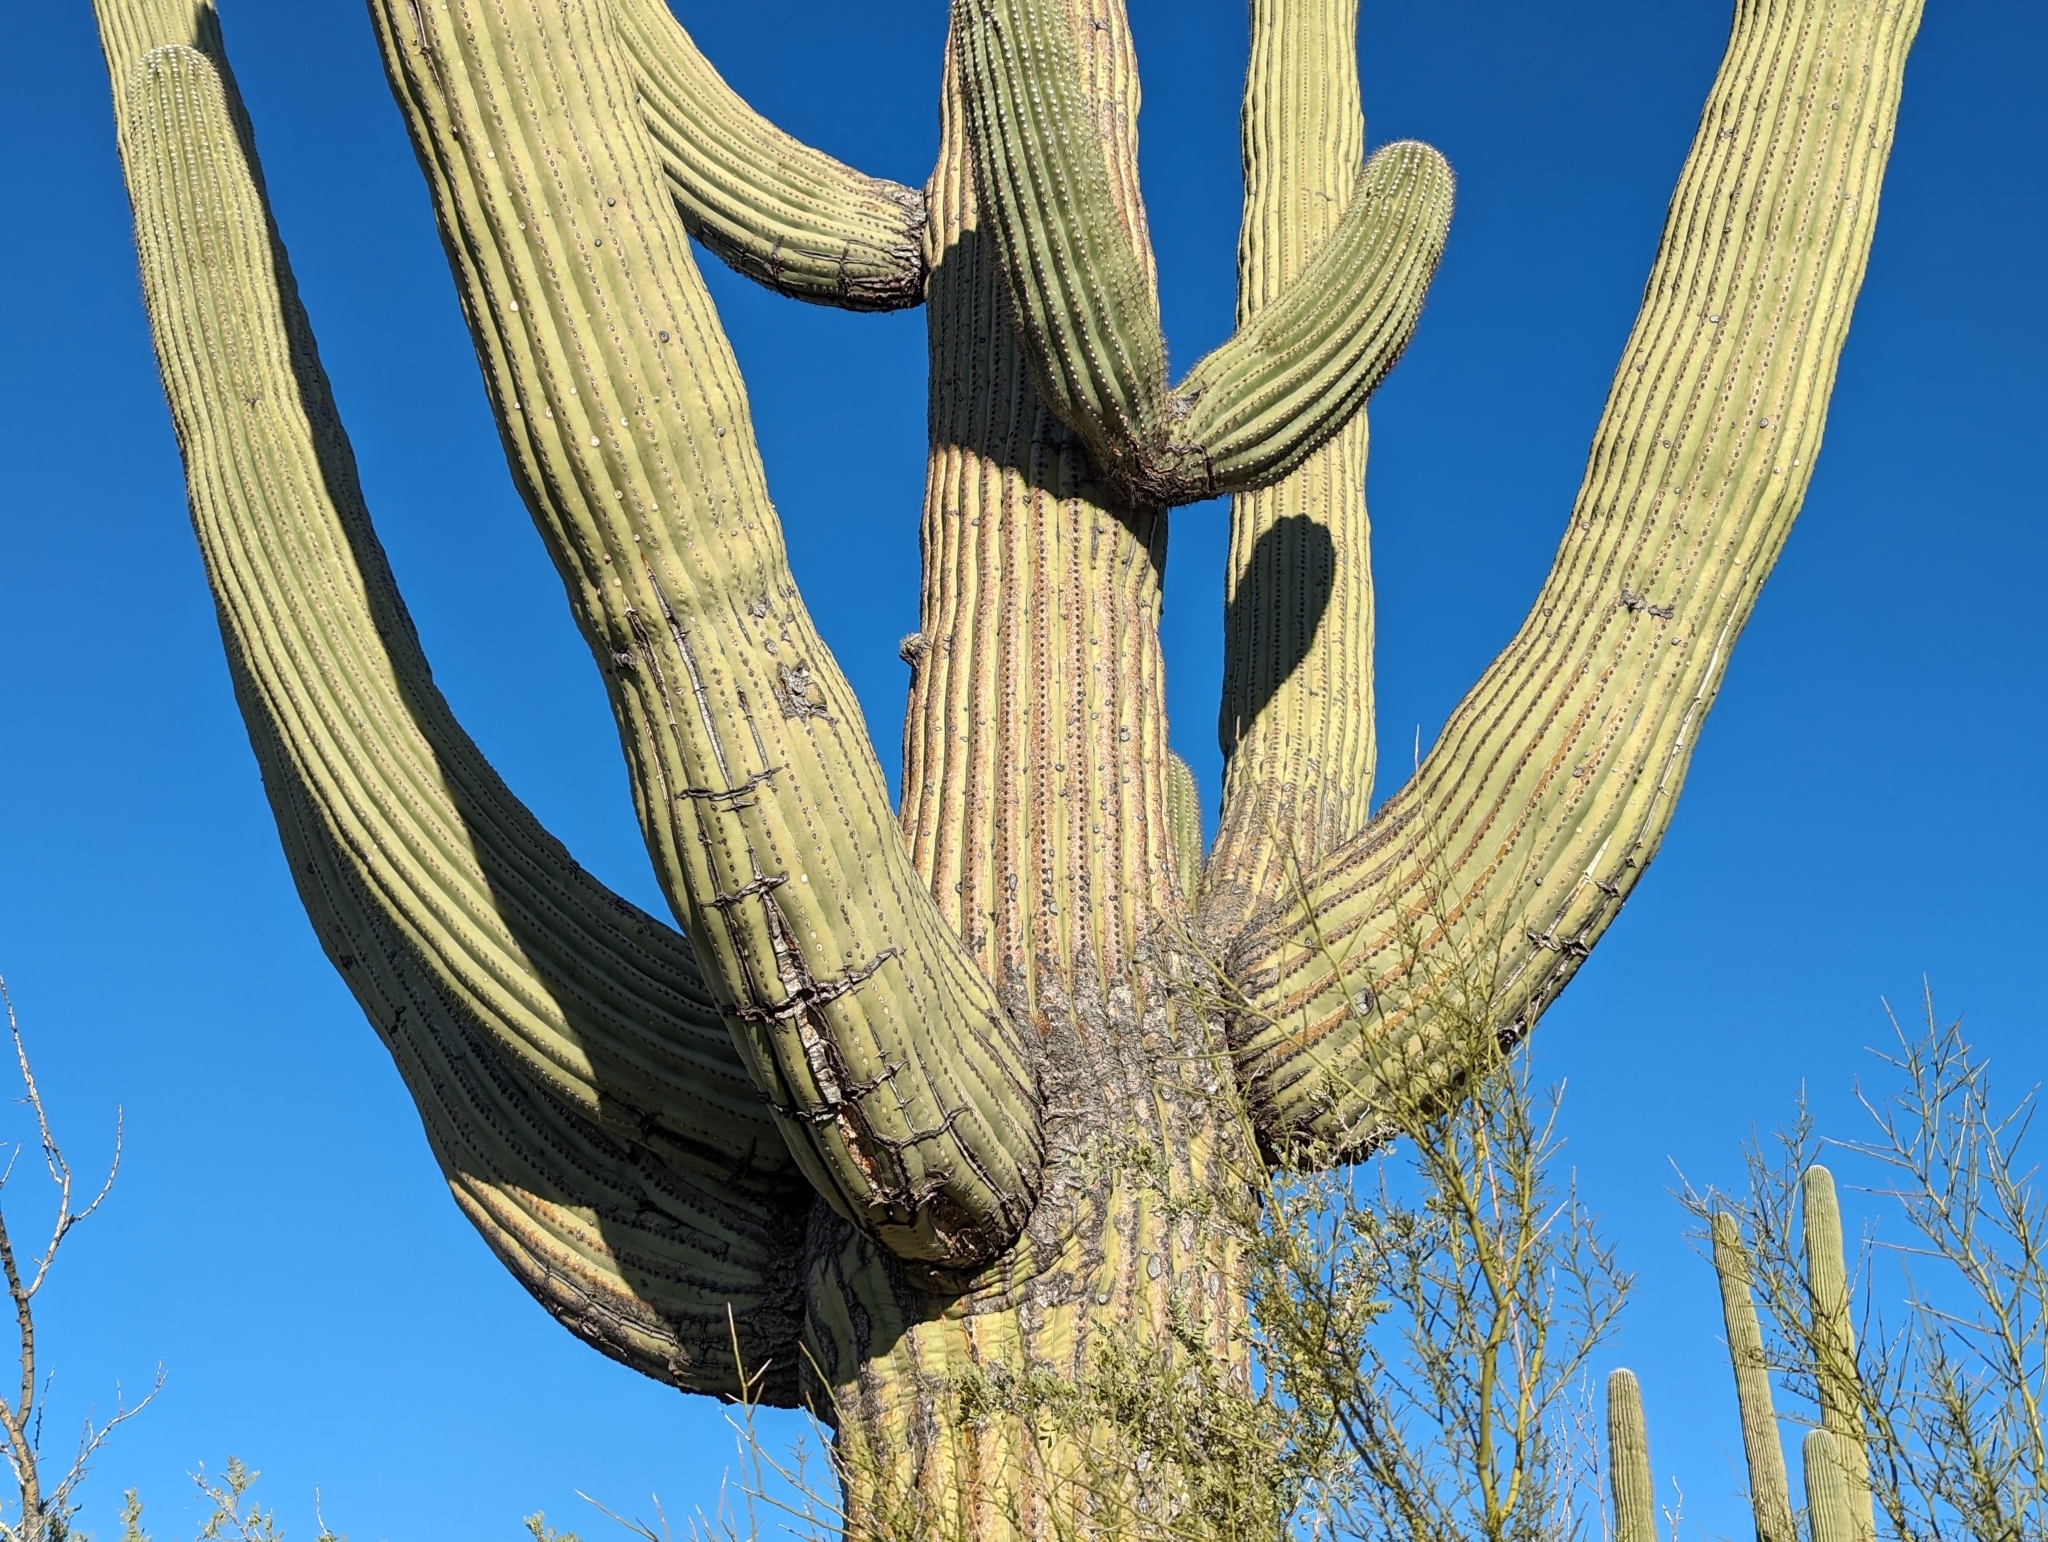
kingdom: Plantae
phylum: Tracheophyta
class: Magnoliopsida
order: Caryophyllales
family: Cactaceae
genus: Carnegiea
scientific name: Carnegiea gigantea
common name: Saguaro
